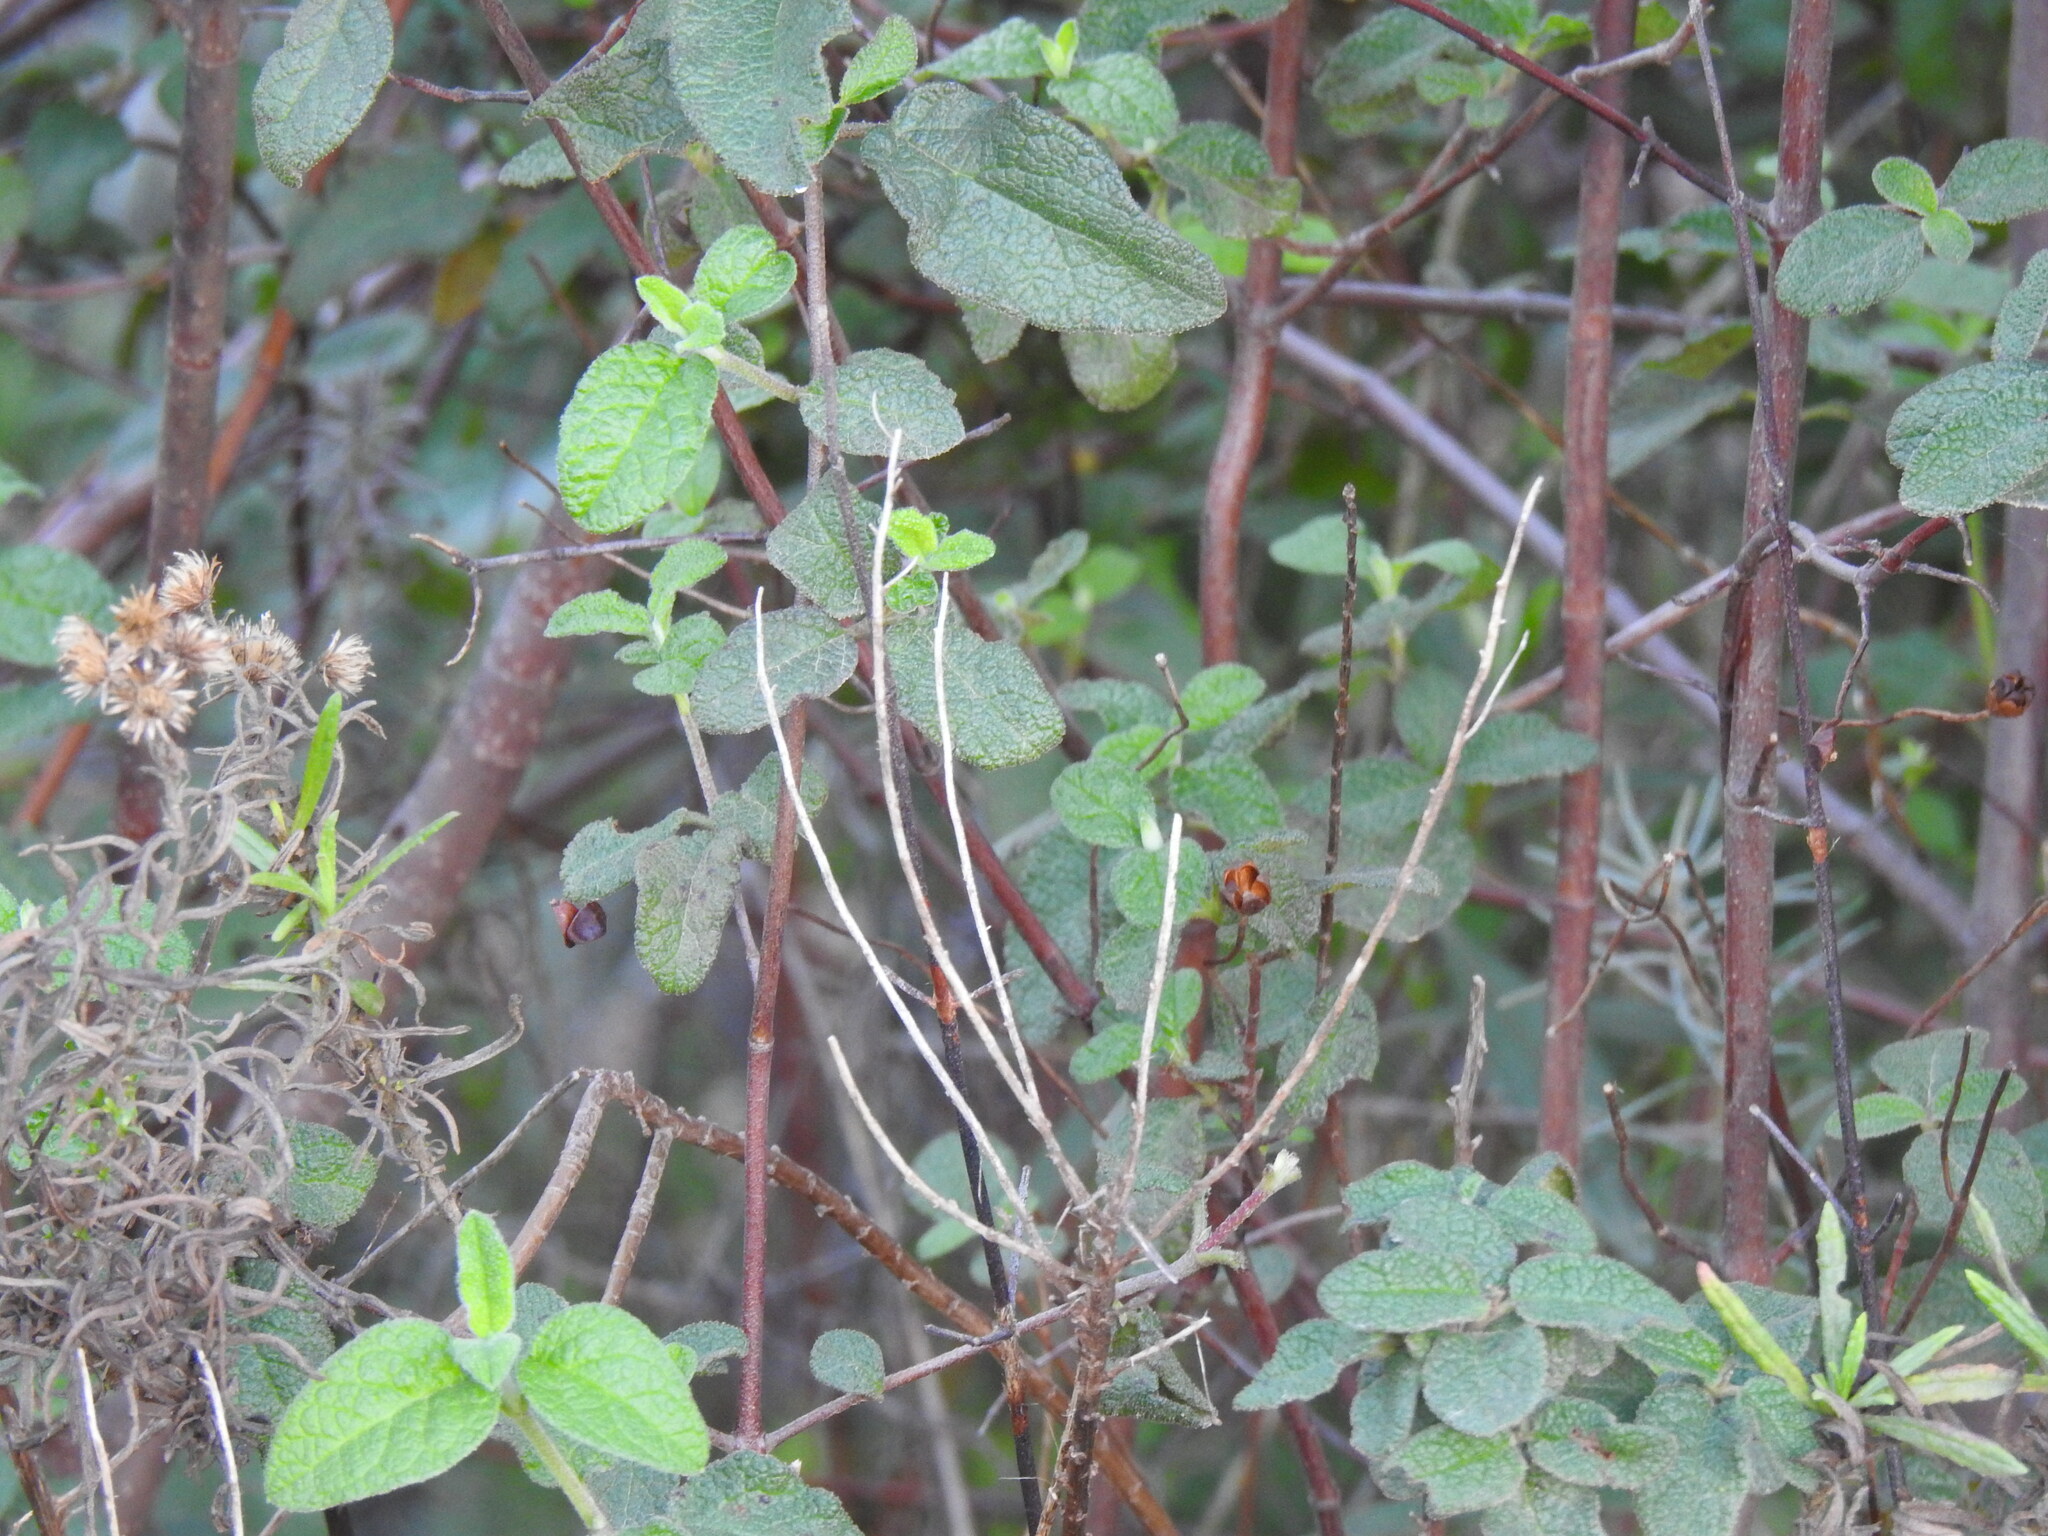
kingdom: Plantae
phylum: Tracheophyta
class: Magnoliopsida
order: Malvales
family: Cistaceae
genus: Cistus
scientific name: Cistus salviifolius
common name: Salvia cistus
